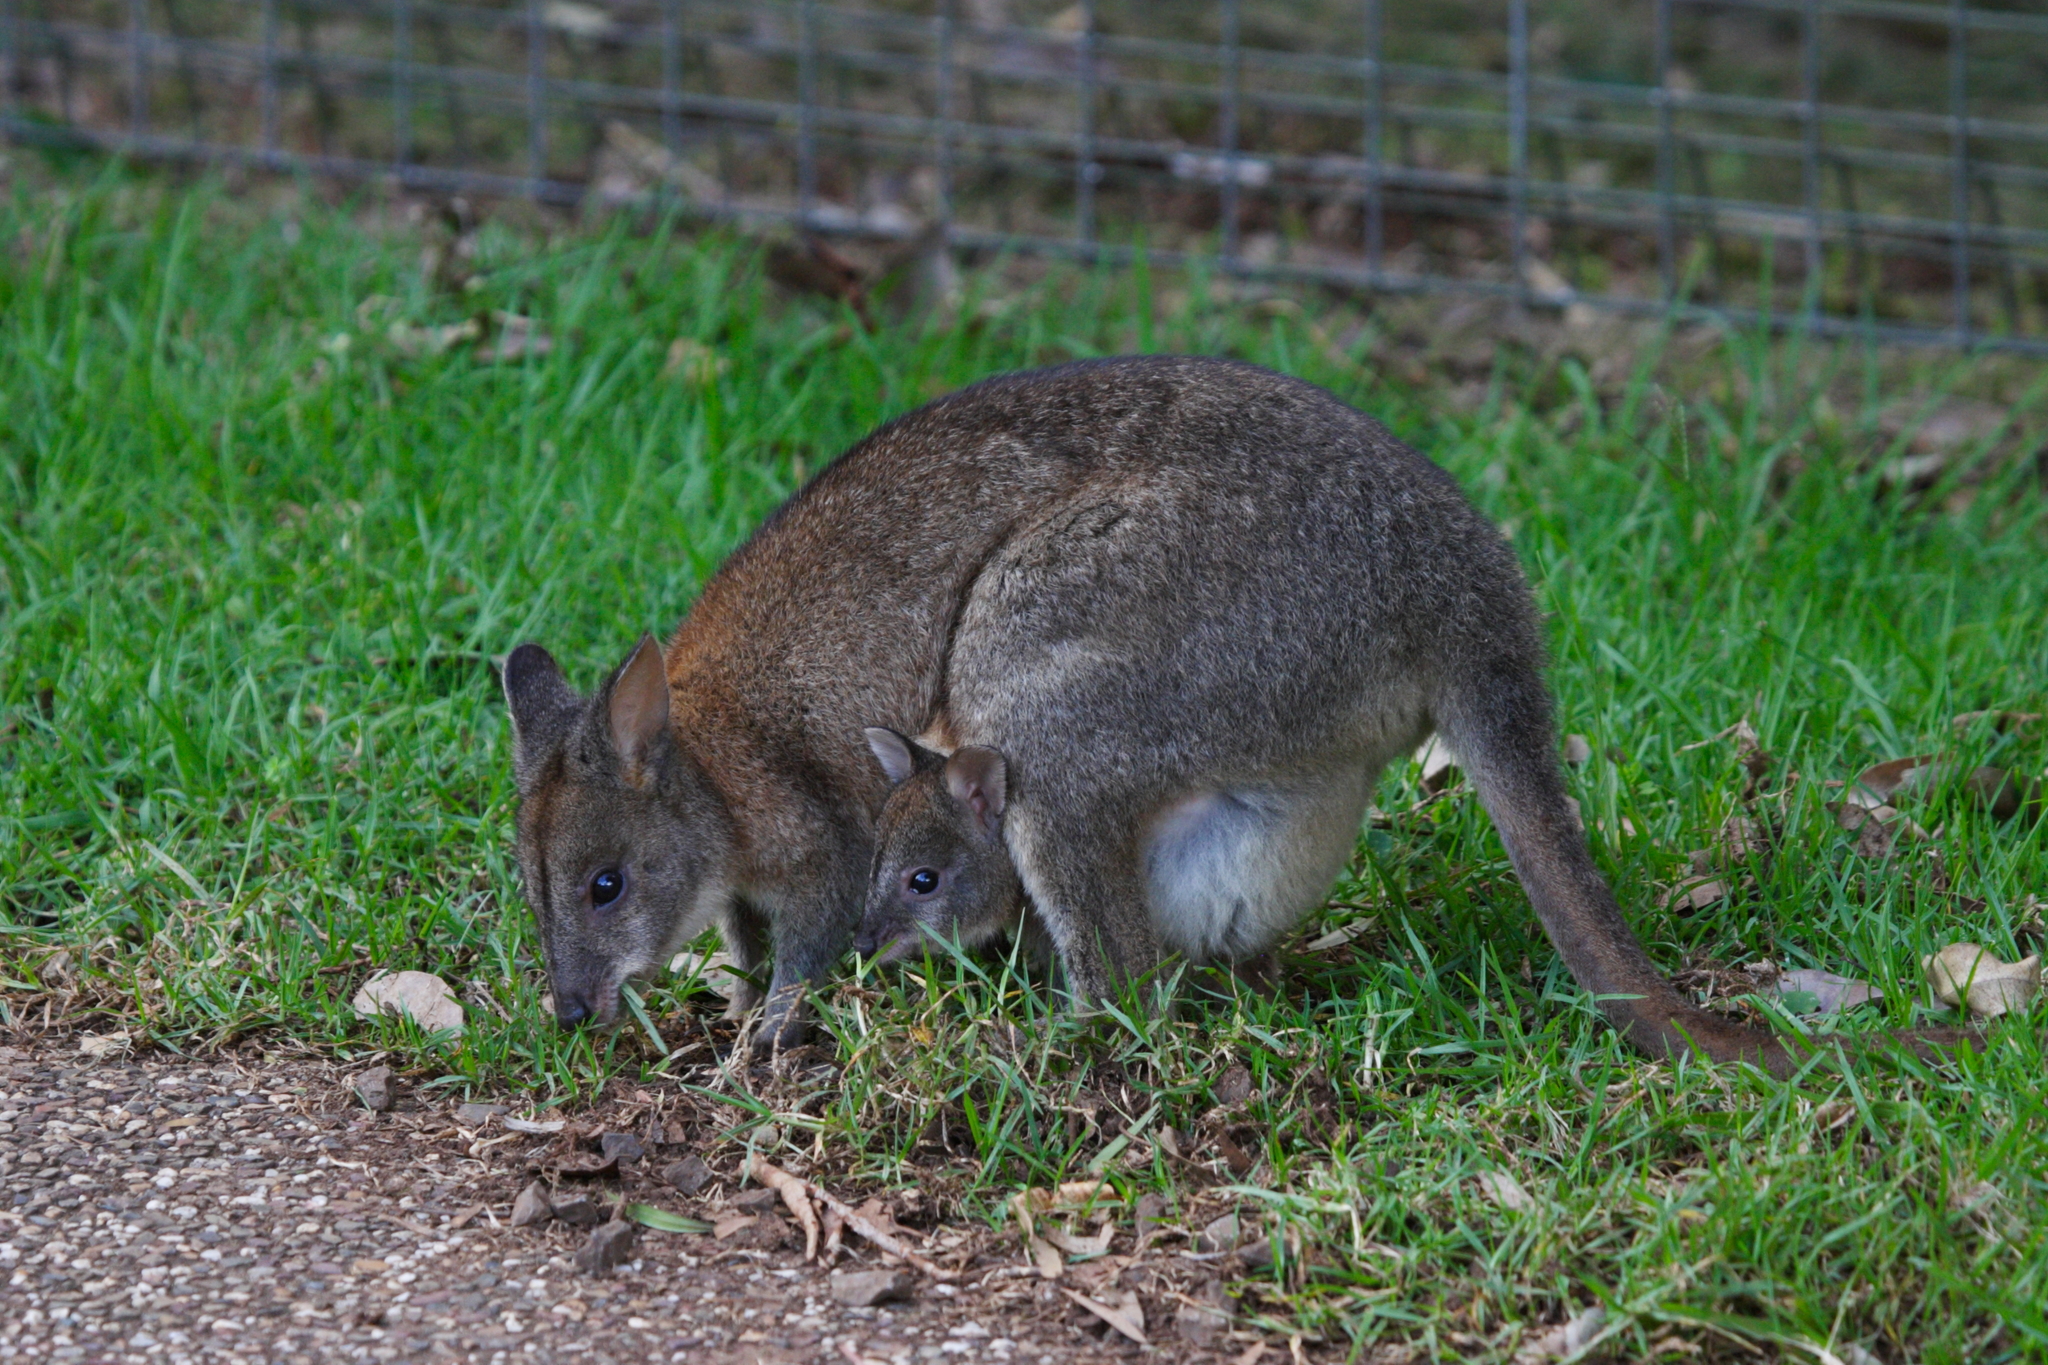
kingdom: Animalia
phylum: Chordata
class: Mammalia
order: Diprotodontia
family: Macropodidae
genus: Thylogale
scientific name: Thylogale thetis
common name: Red-necked pademelon
